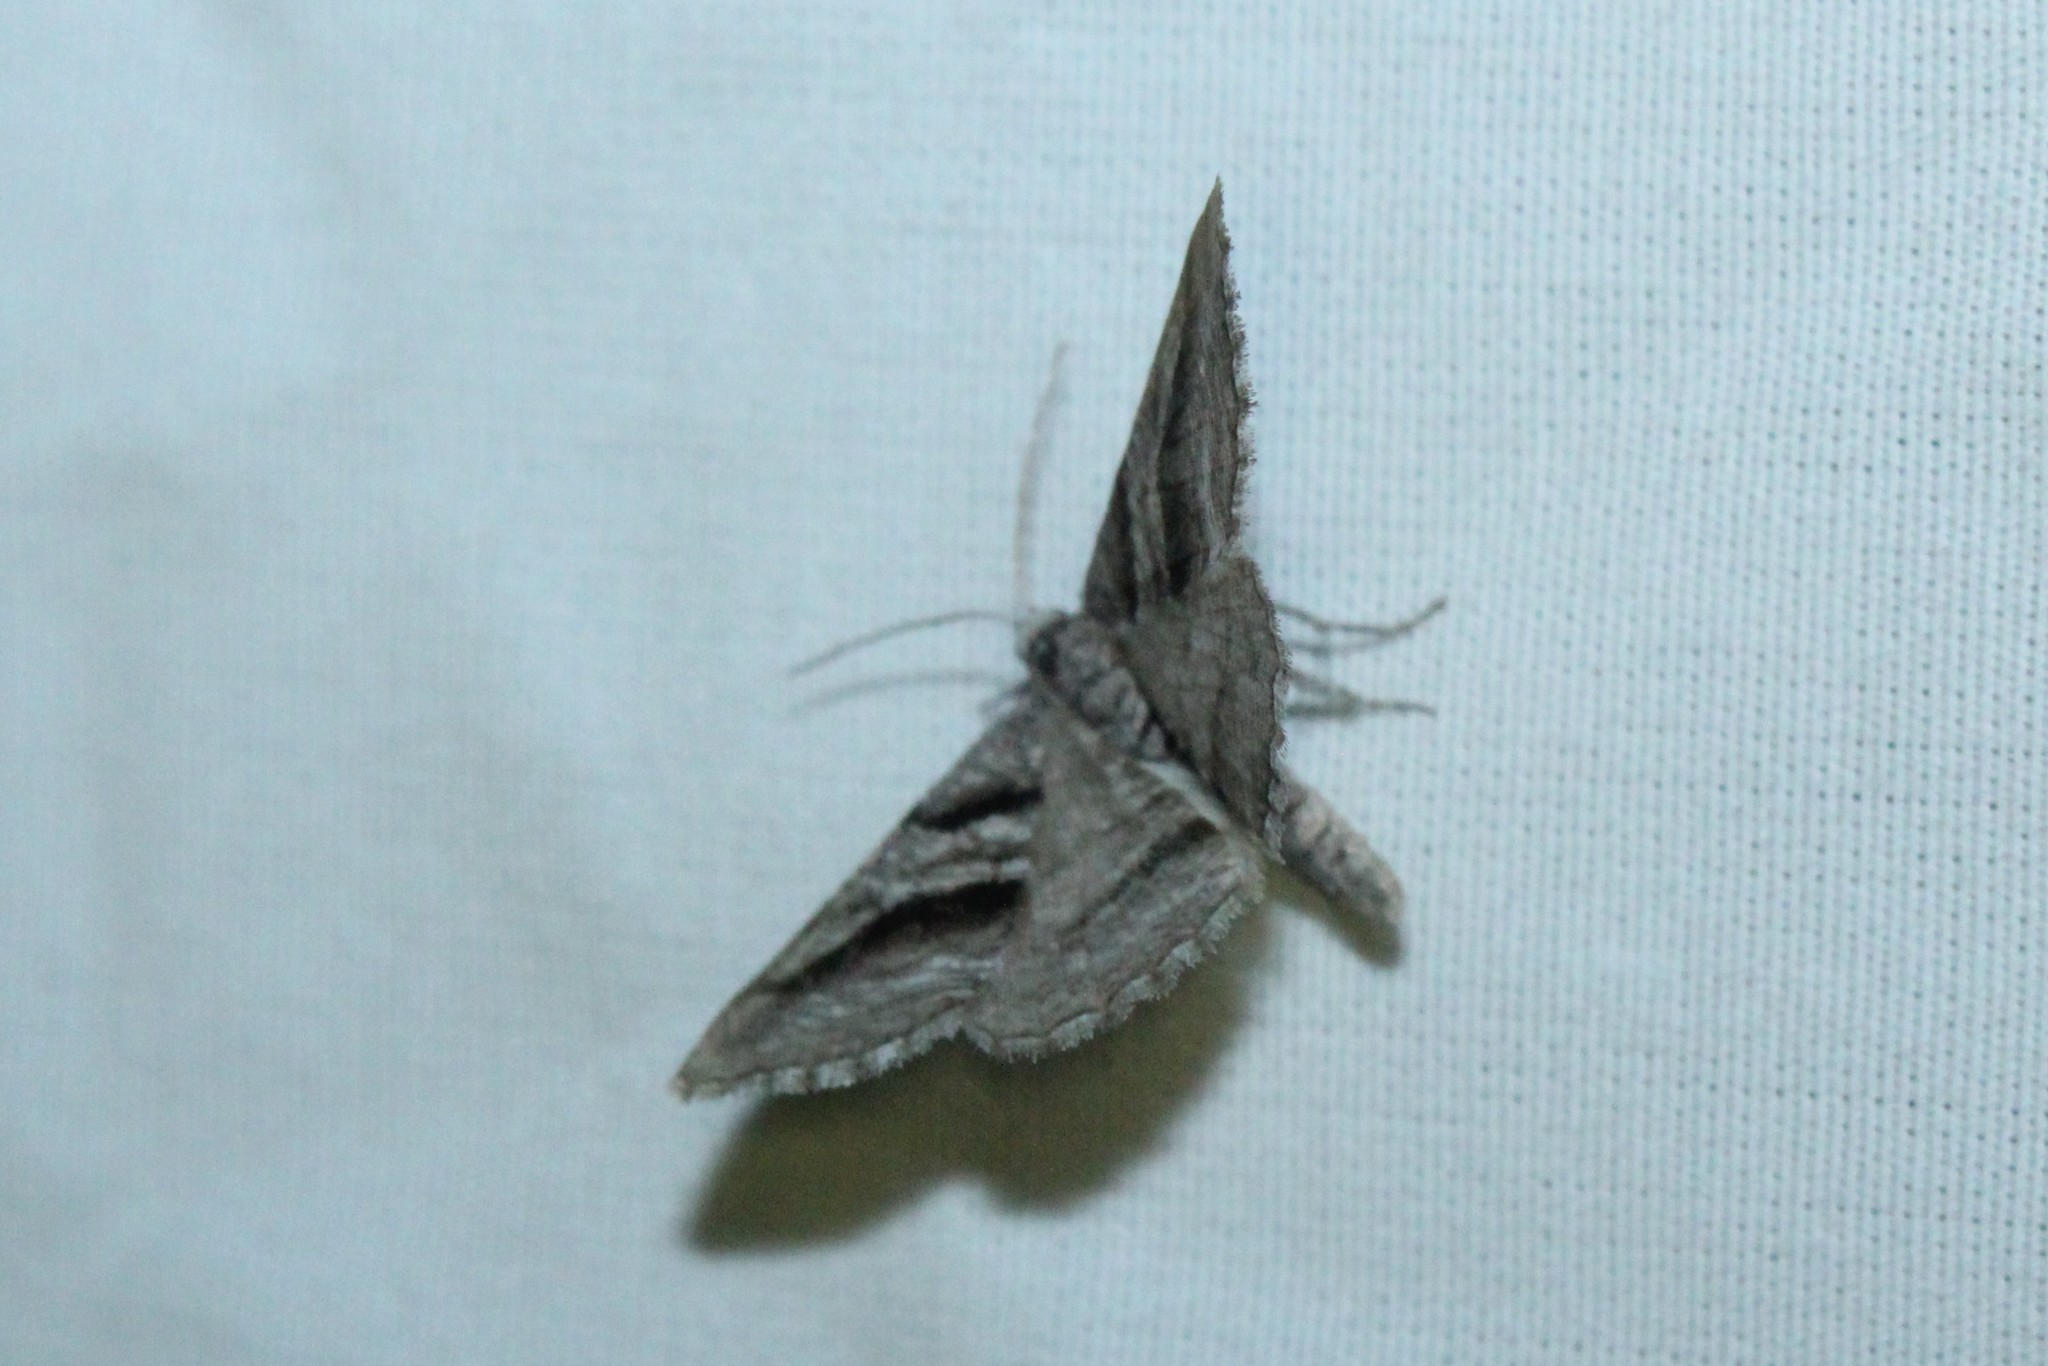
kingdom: Animalia
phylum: Arthropoda
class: Insecta
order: Lepidoptera
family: Geometridae
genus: Digrammia
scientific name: Digrammia continuata
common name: Curve-lined angle
